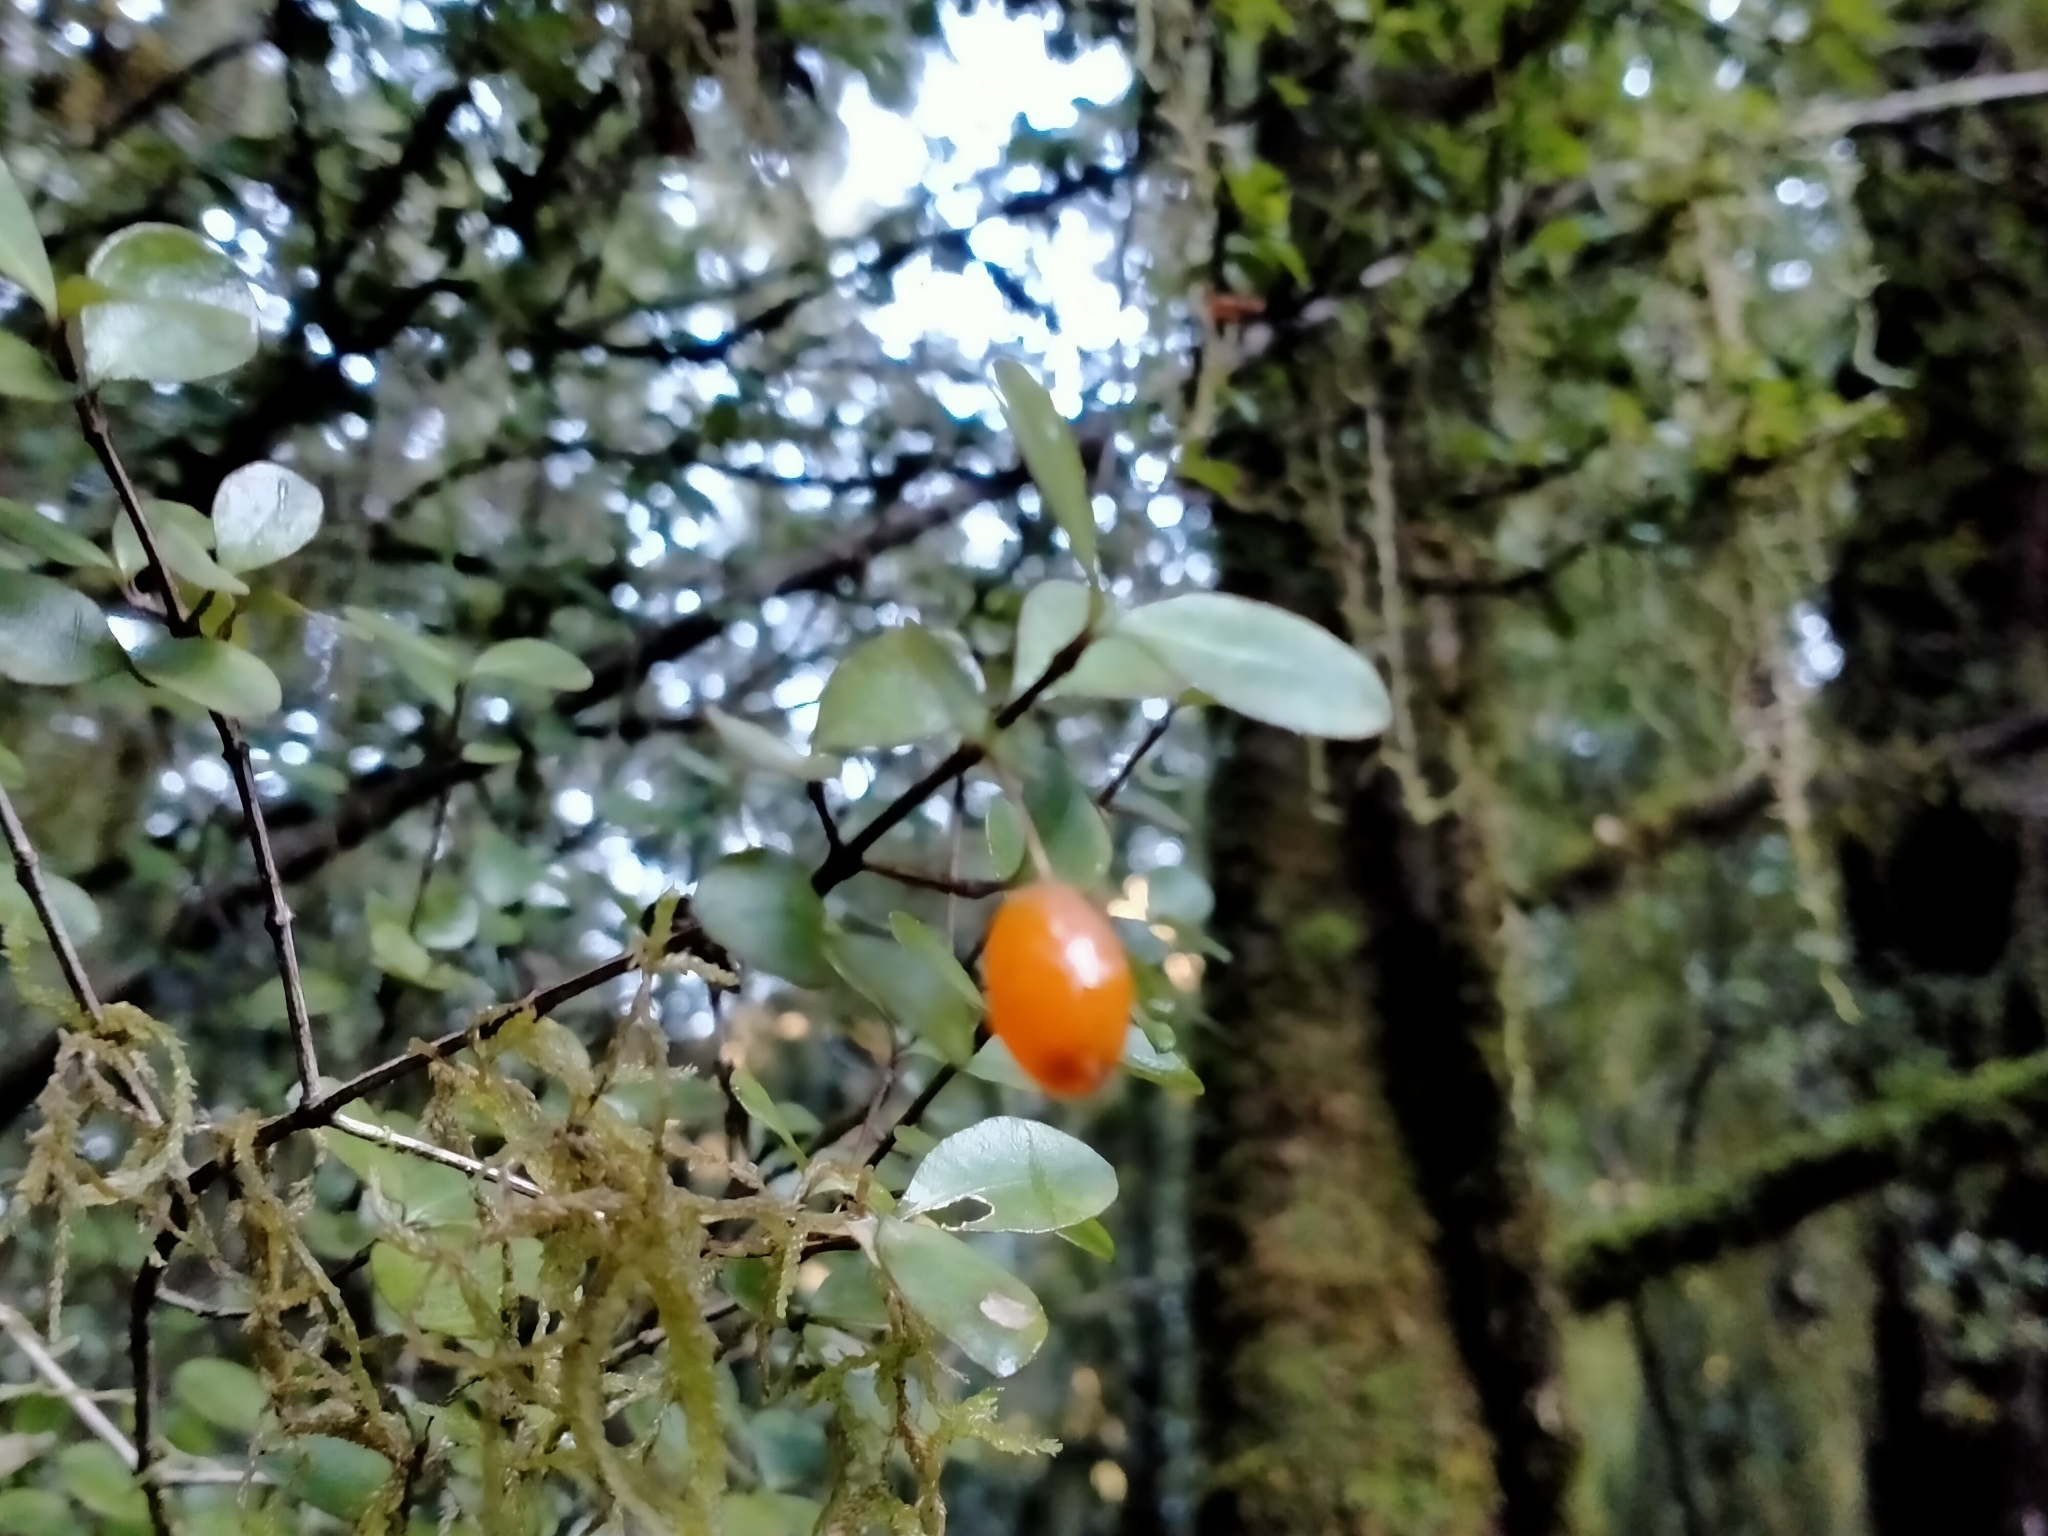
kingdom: Plantae
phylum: Tracheophyta
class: Magnoliopsida
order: Myrtales
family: Myrtaceae
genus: Neomyrtus
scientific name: Neomyrtus pedunculata
